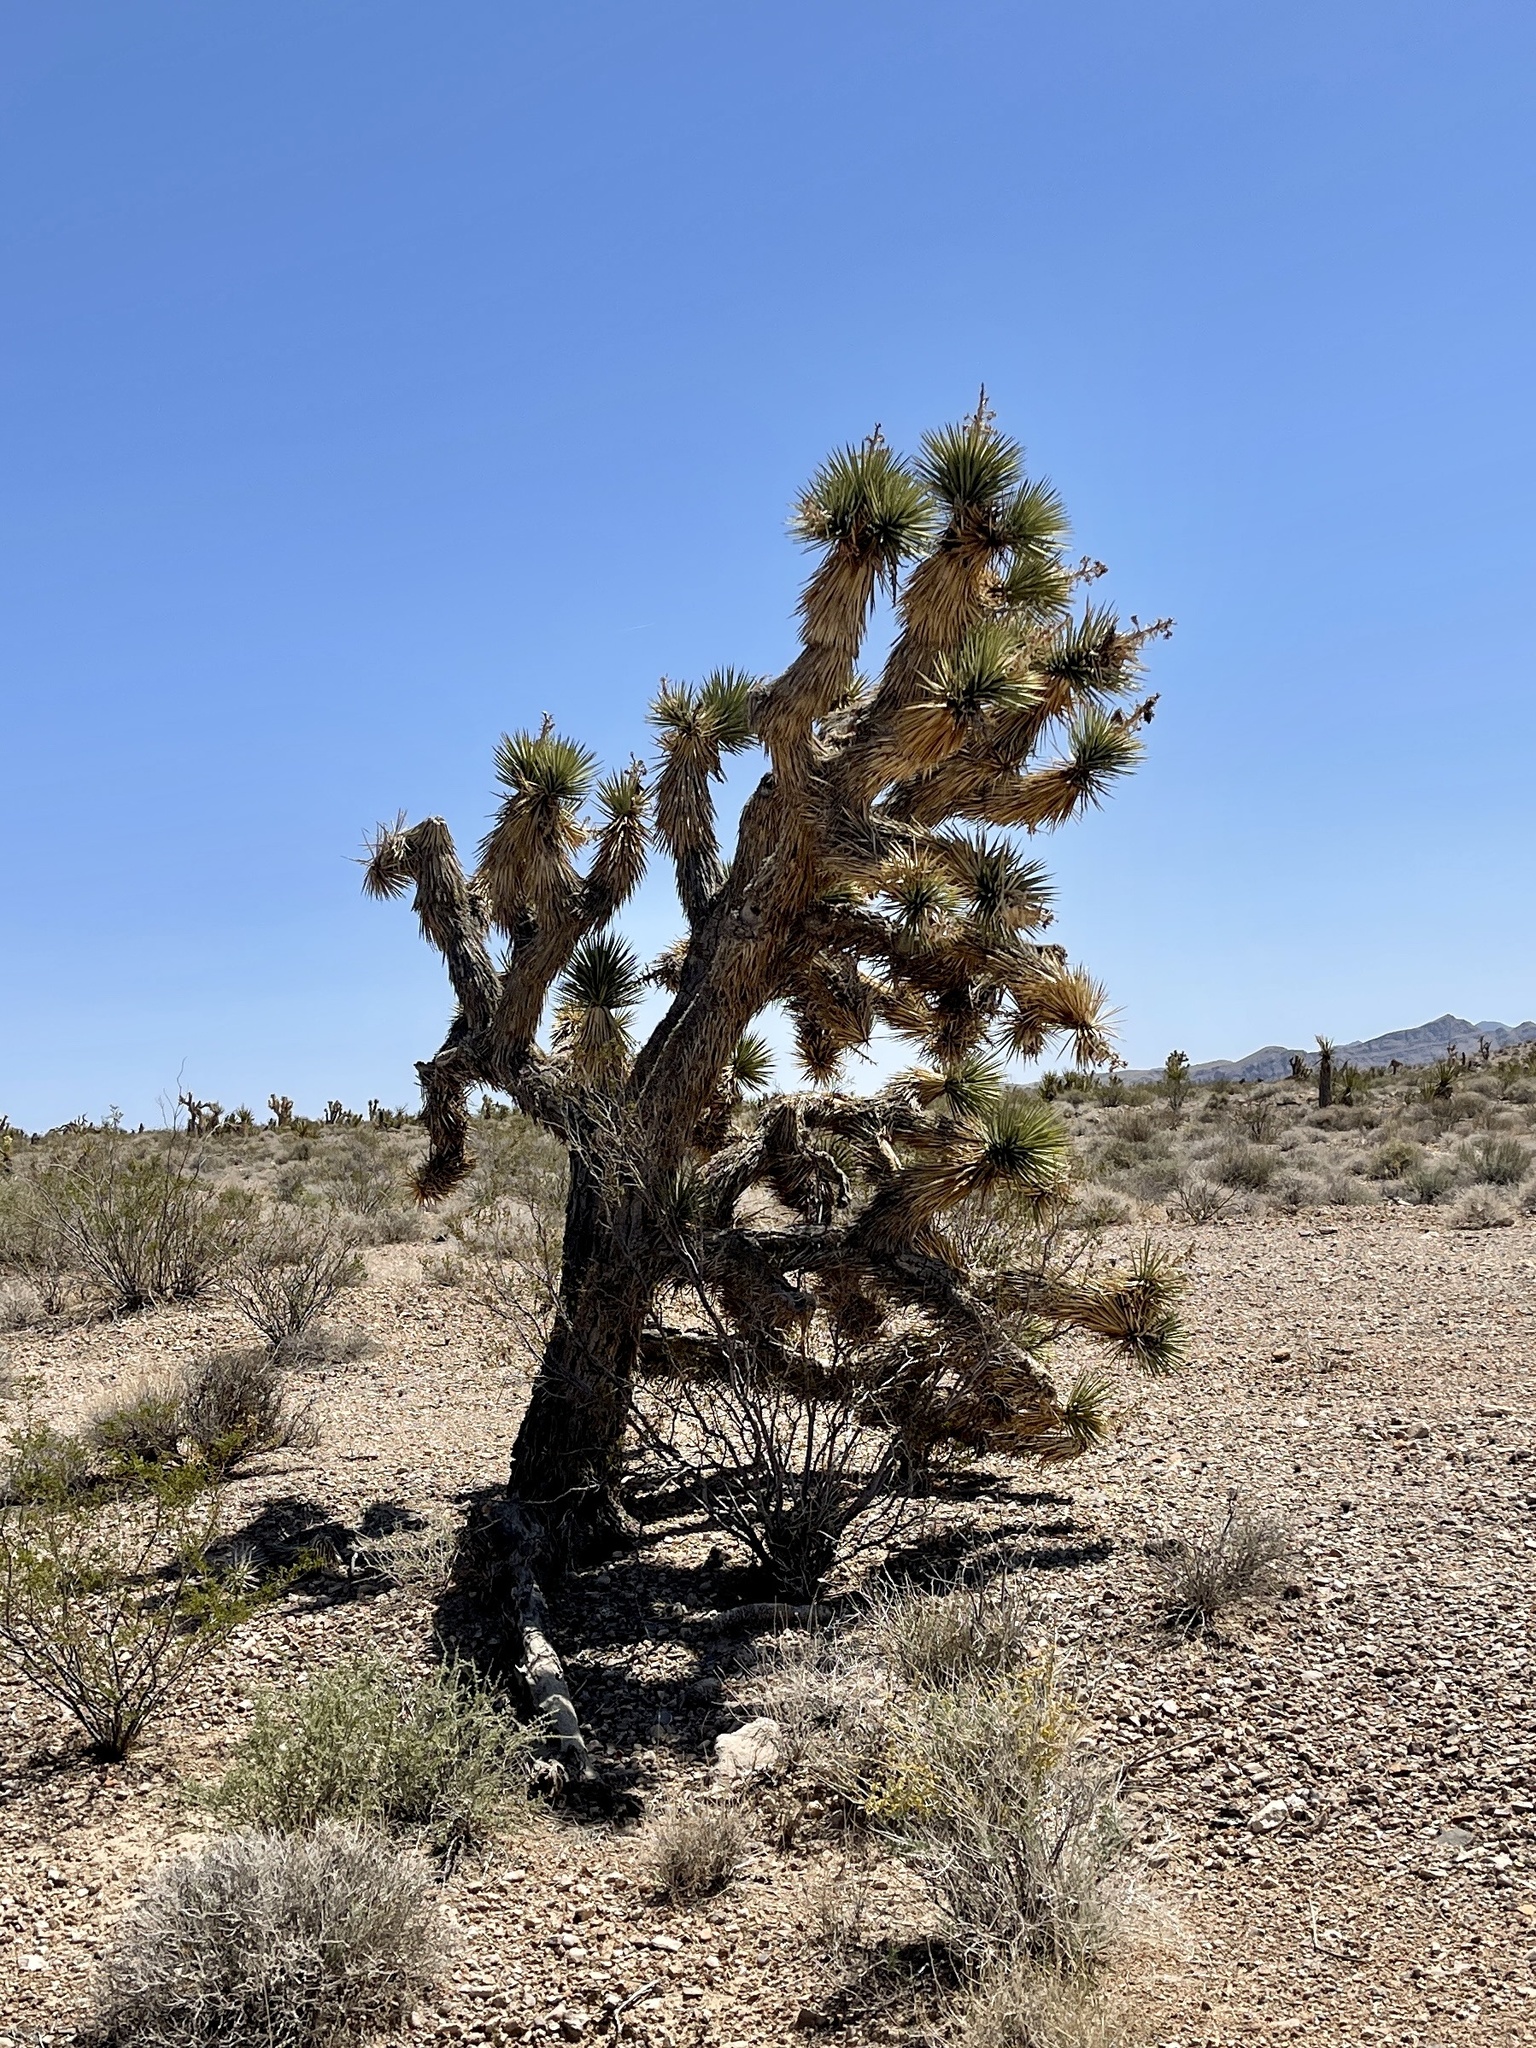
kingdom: Plantae
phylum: Tracheophyta
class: Liliopsida
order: Asparagales
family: Asparagaceae
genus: Yucca
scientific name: Yucca brevifolia
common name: Joshua tree
